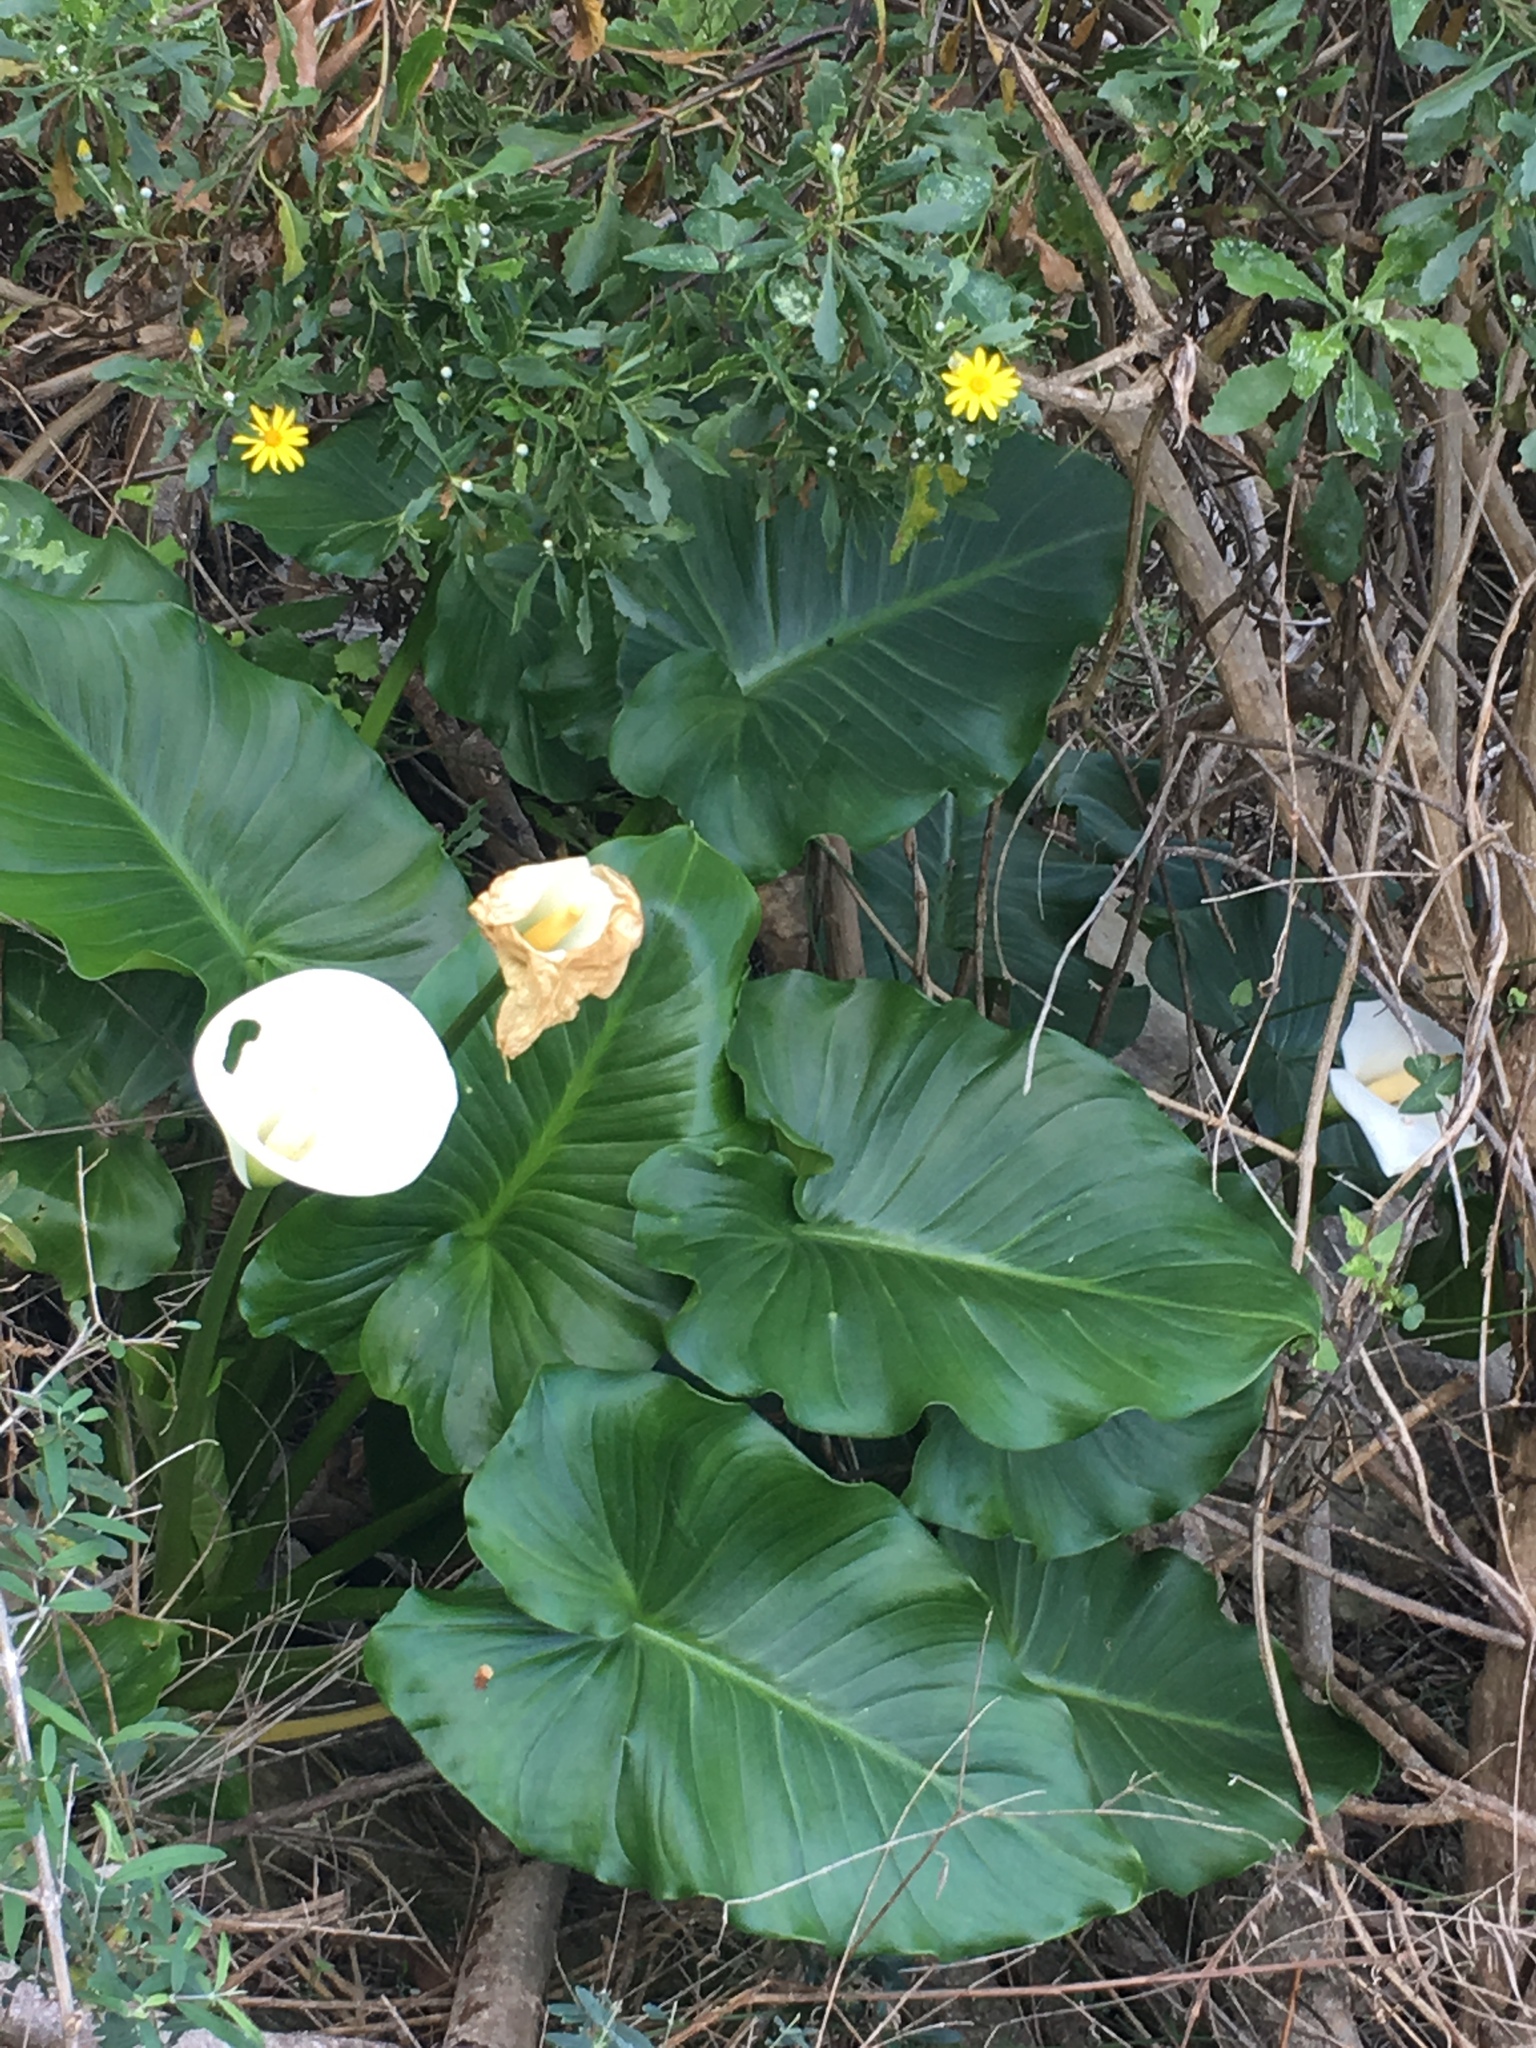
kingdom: Plantae
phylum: Tracheophyta
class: Liliopsida
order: Alismatales
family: Araceae
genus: Zantedeschia
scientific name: Zantedeschia aethiopica
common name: Altar-lily
